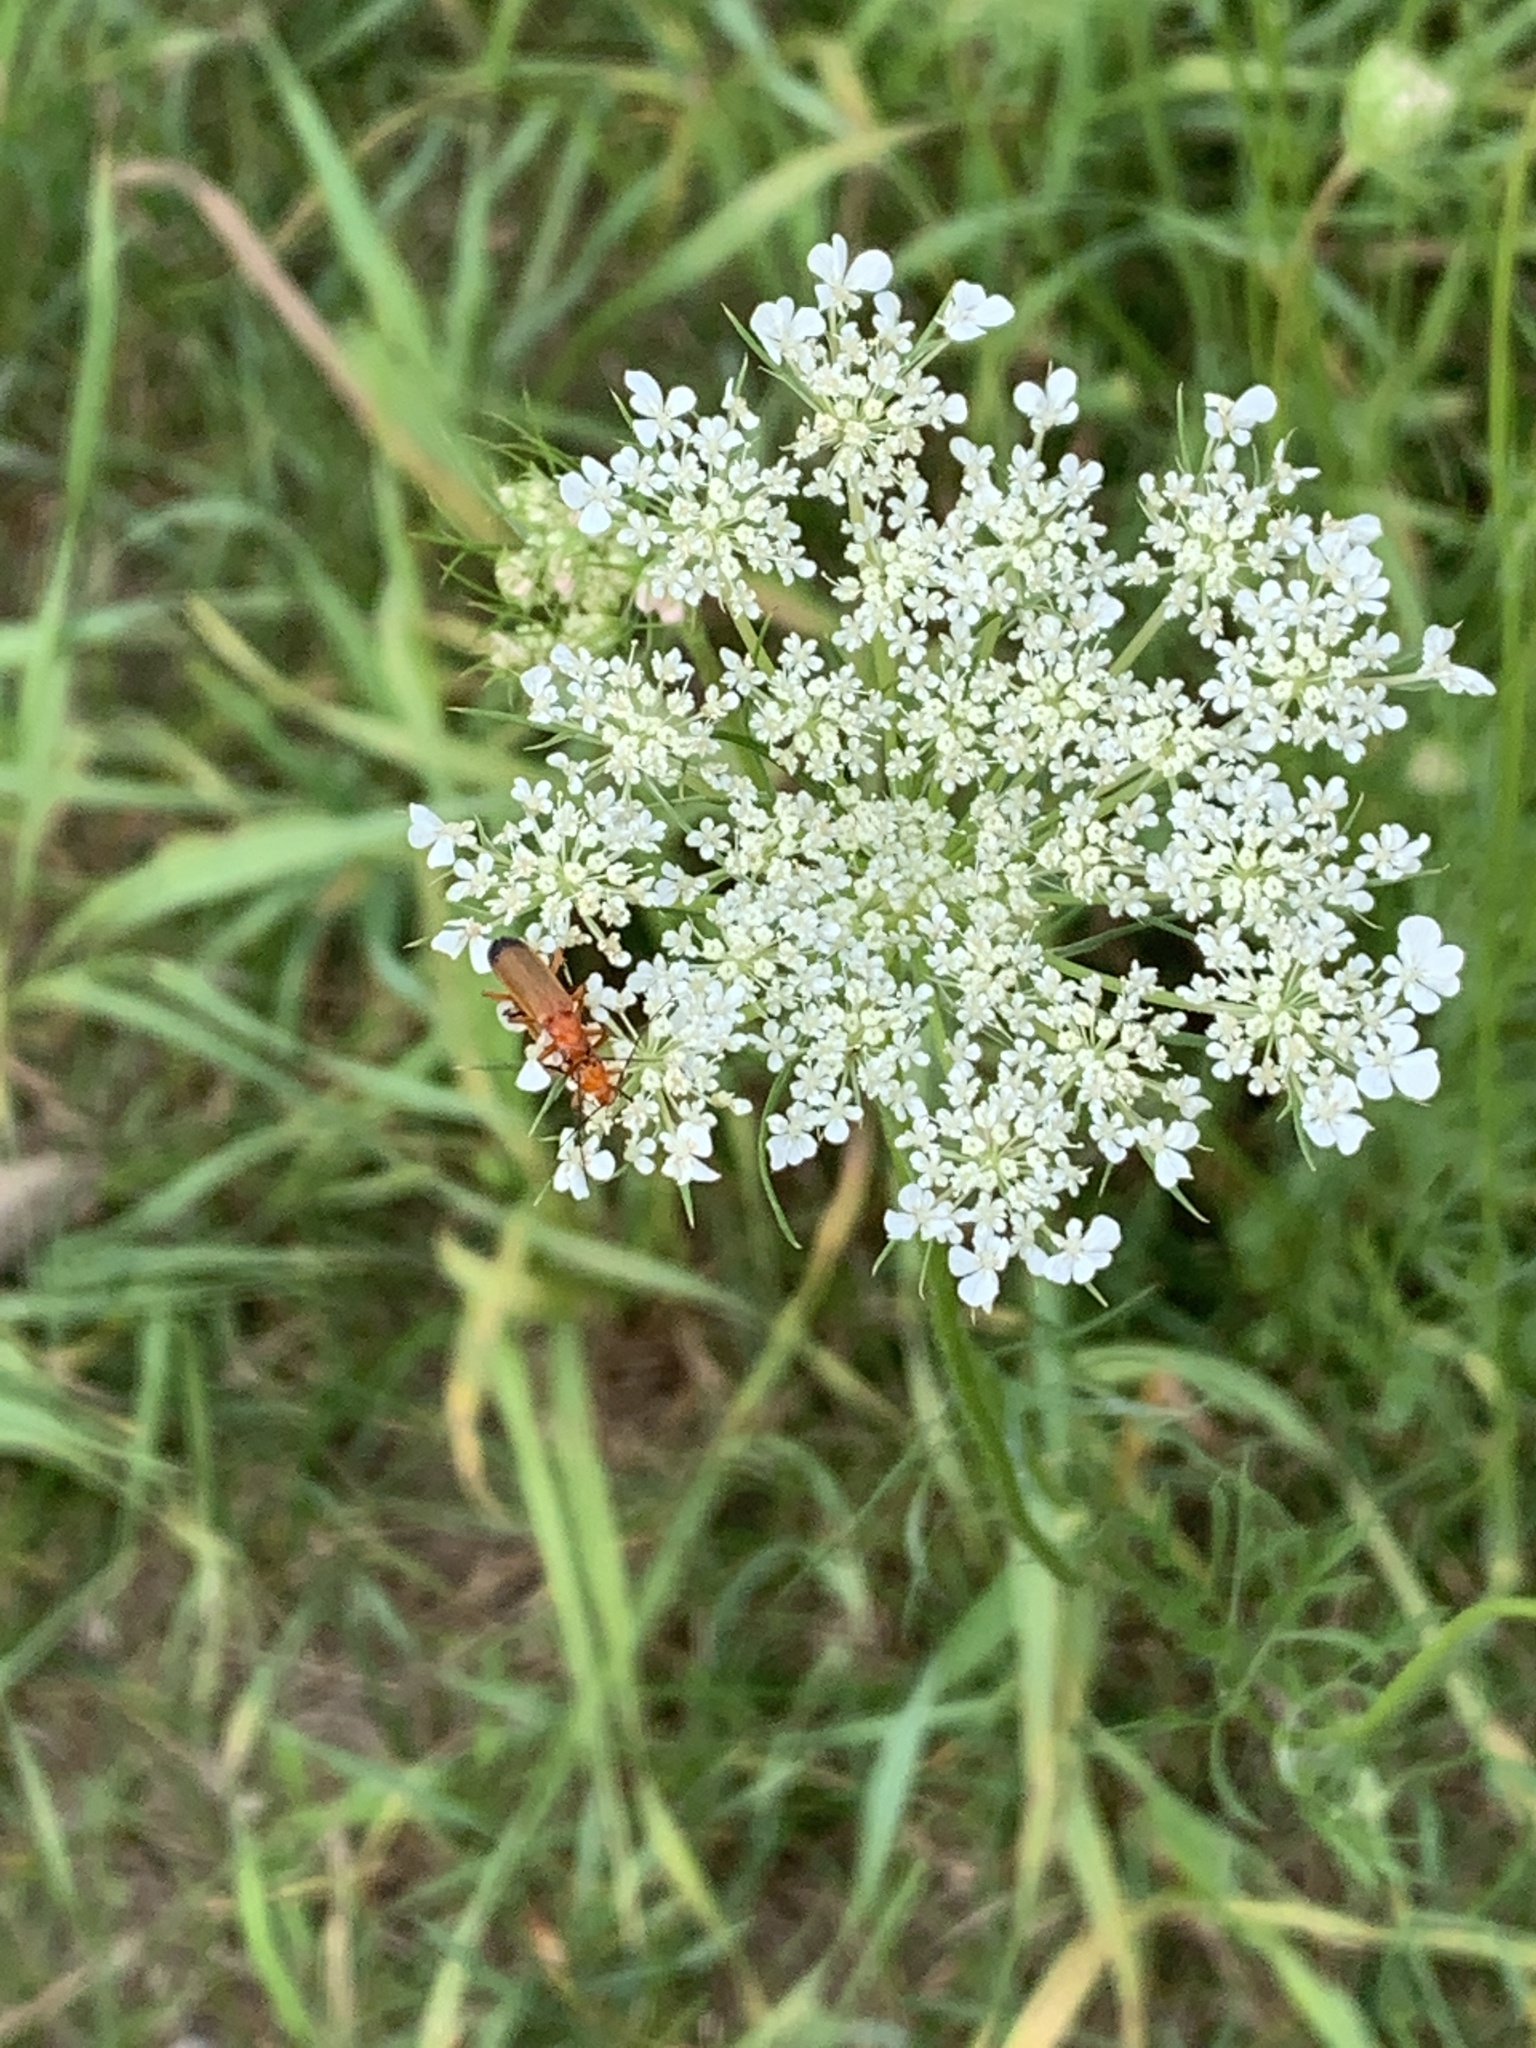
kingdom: Animalia
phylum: Arthropoda
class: Insecta
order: Coleoptera
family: Cantharidae
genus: Rhagonycha
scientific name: Rhagonycha fulva
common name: Common red soldier beetle
